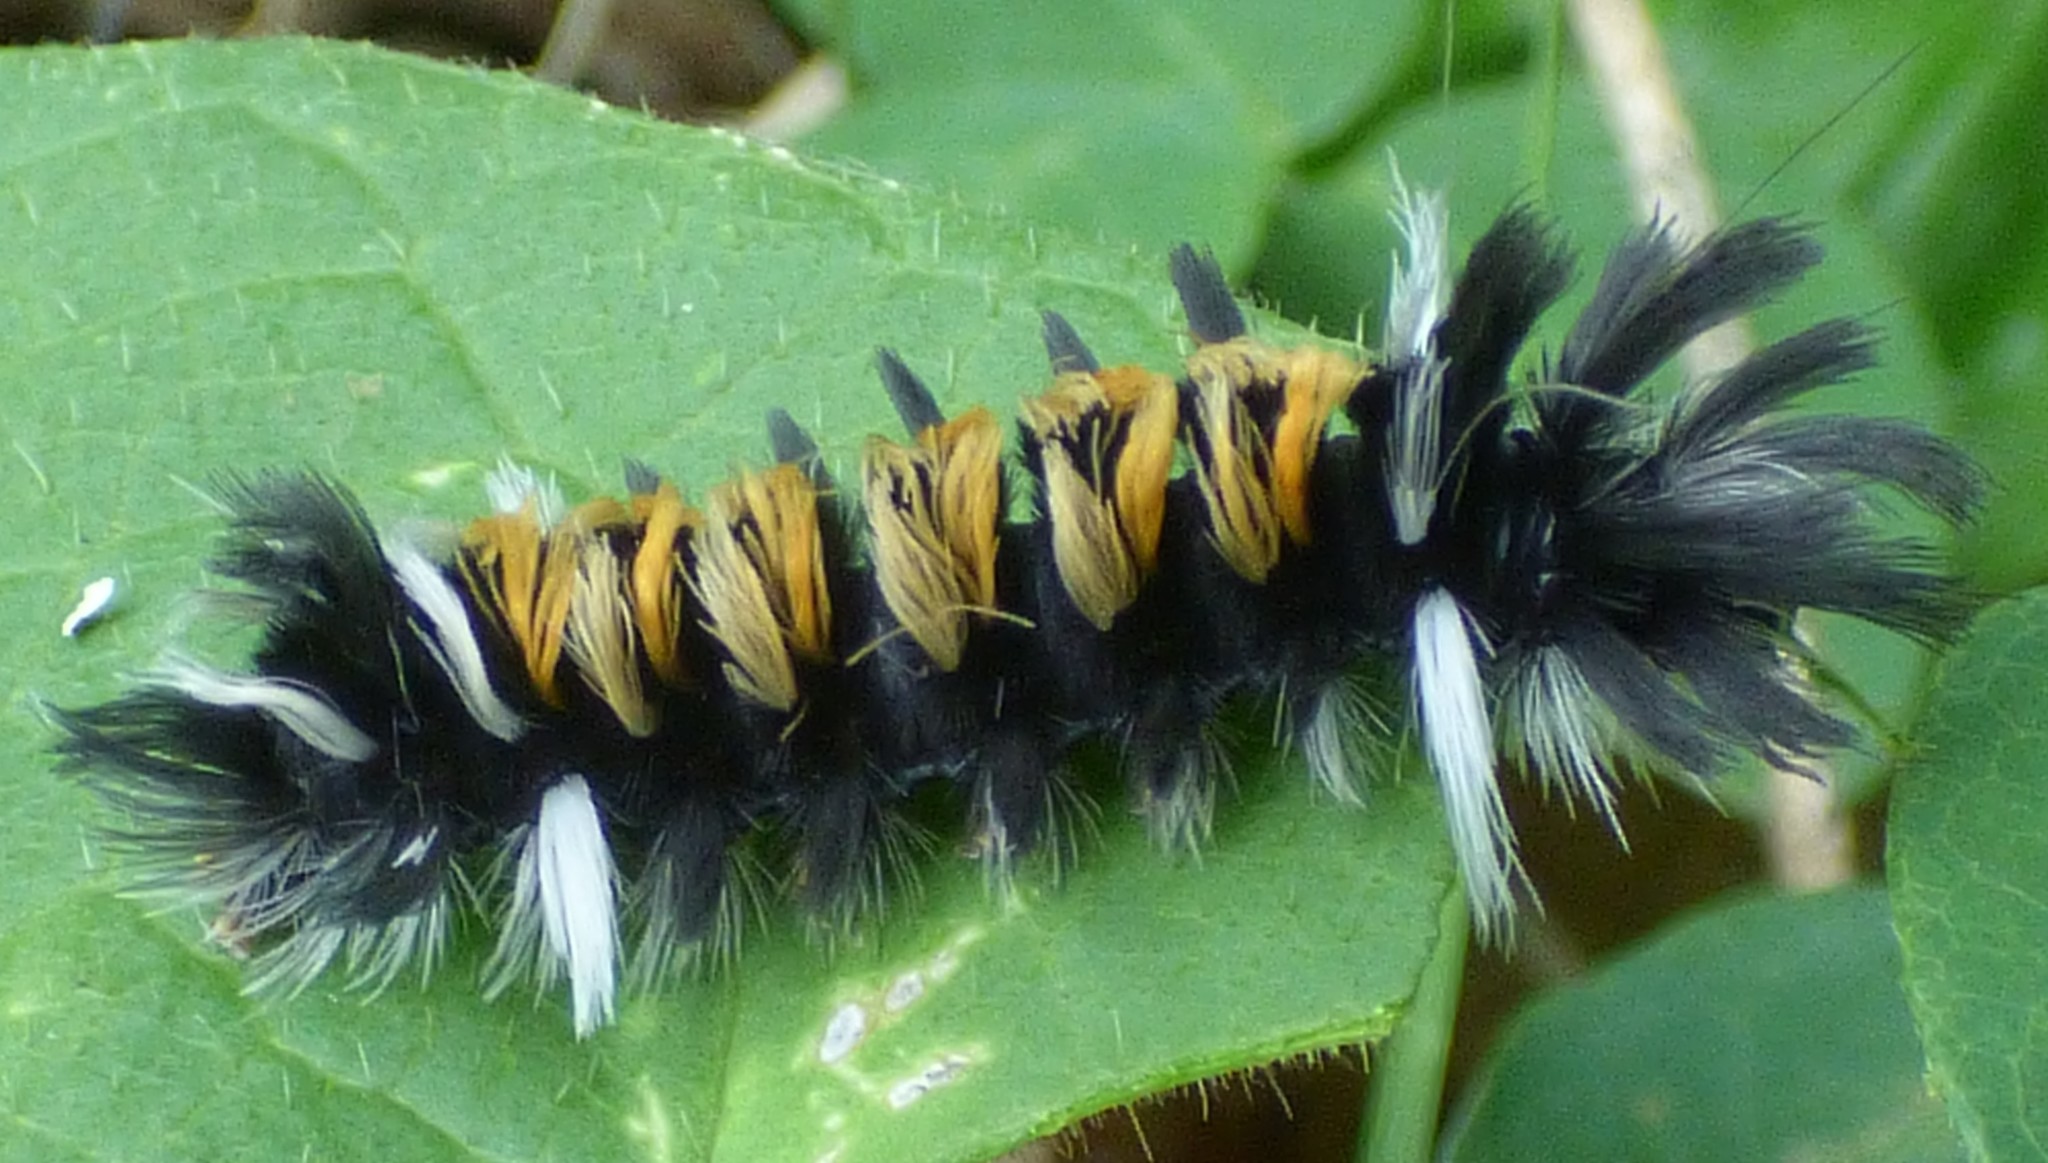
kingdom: Animalia
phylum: Arthropoda
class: Insecta
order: Lepidoptera
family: Erebidae
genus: Euchaetes
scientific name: Euchaetes egle
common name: Milkweed tussock moth
